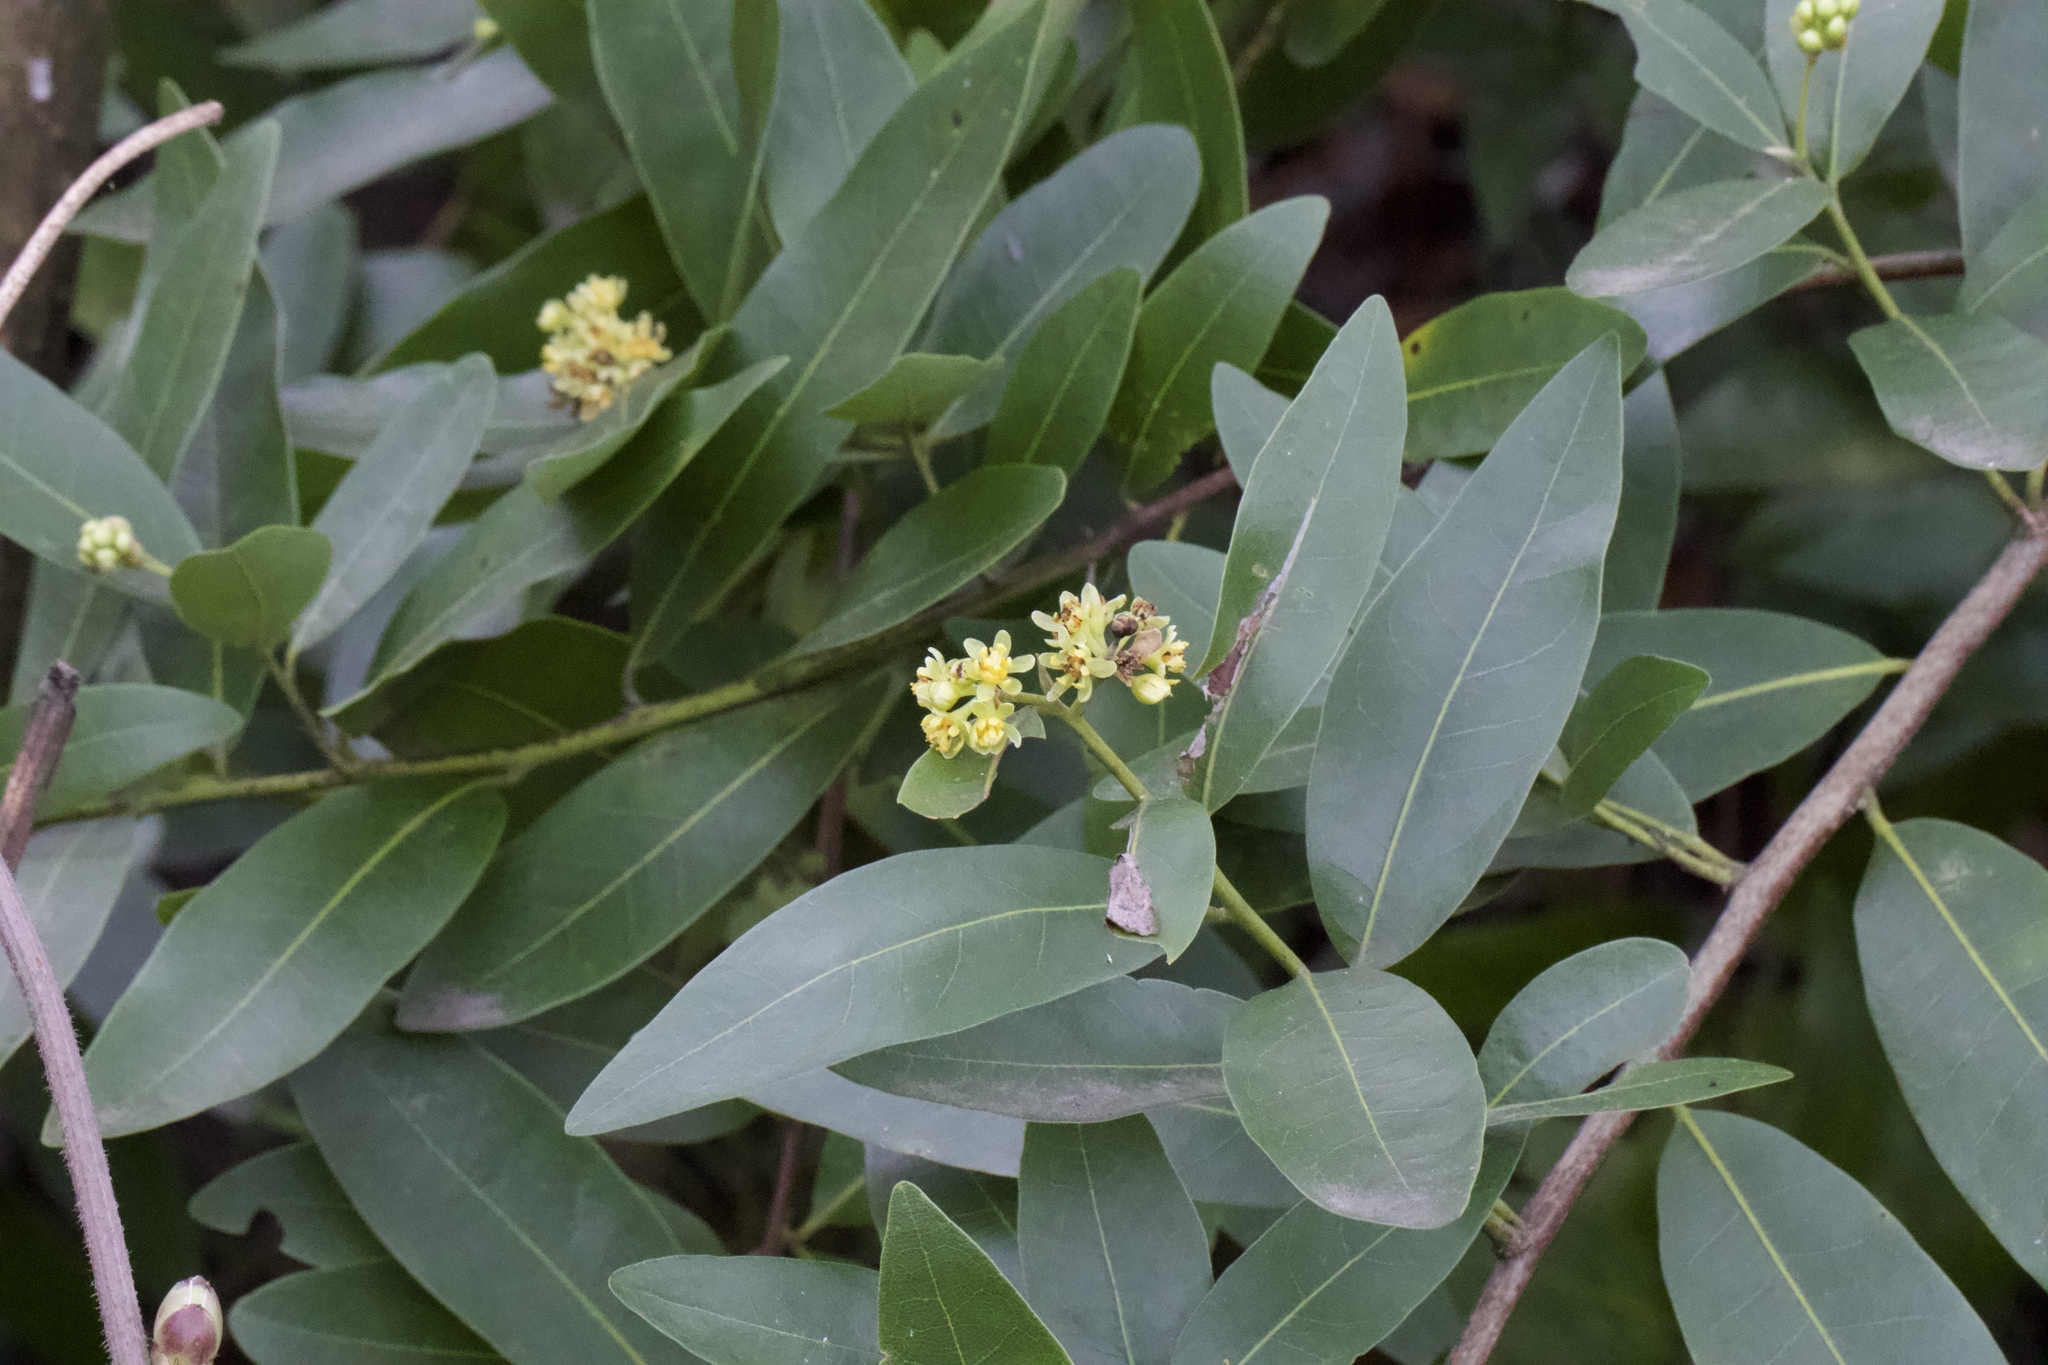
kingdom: Plantae
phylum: Tracheophyta
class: Magnoliopsida
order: Laurales
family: Lauraceae
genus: Umbellularia
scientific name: Umbellularia californica
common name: California bay
